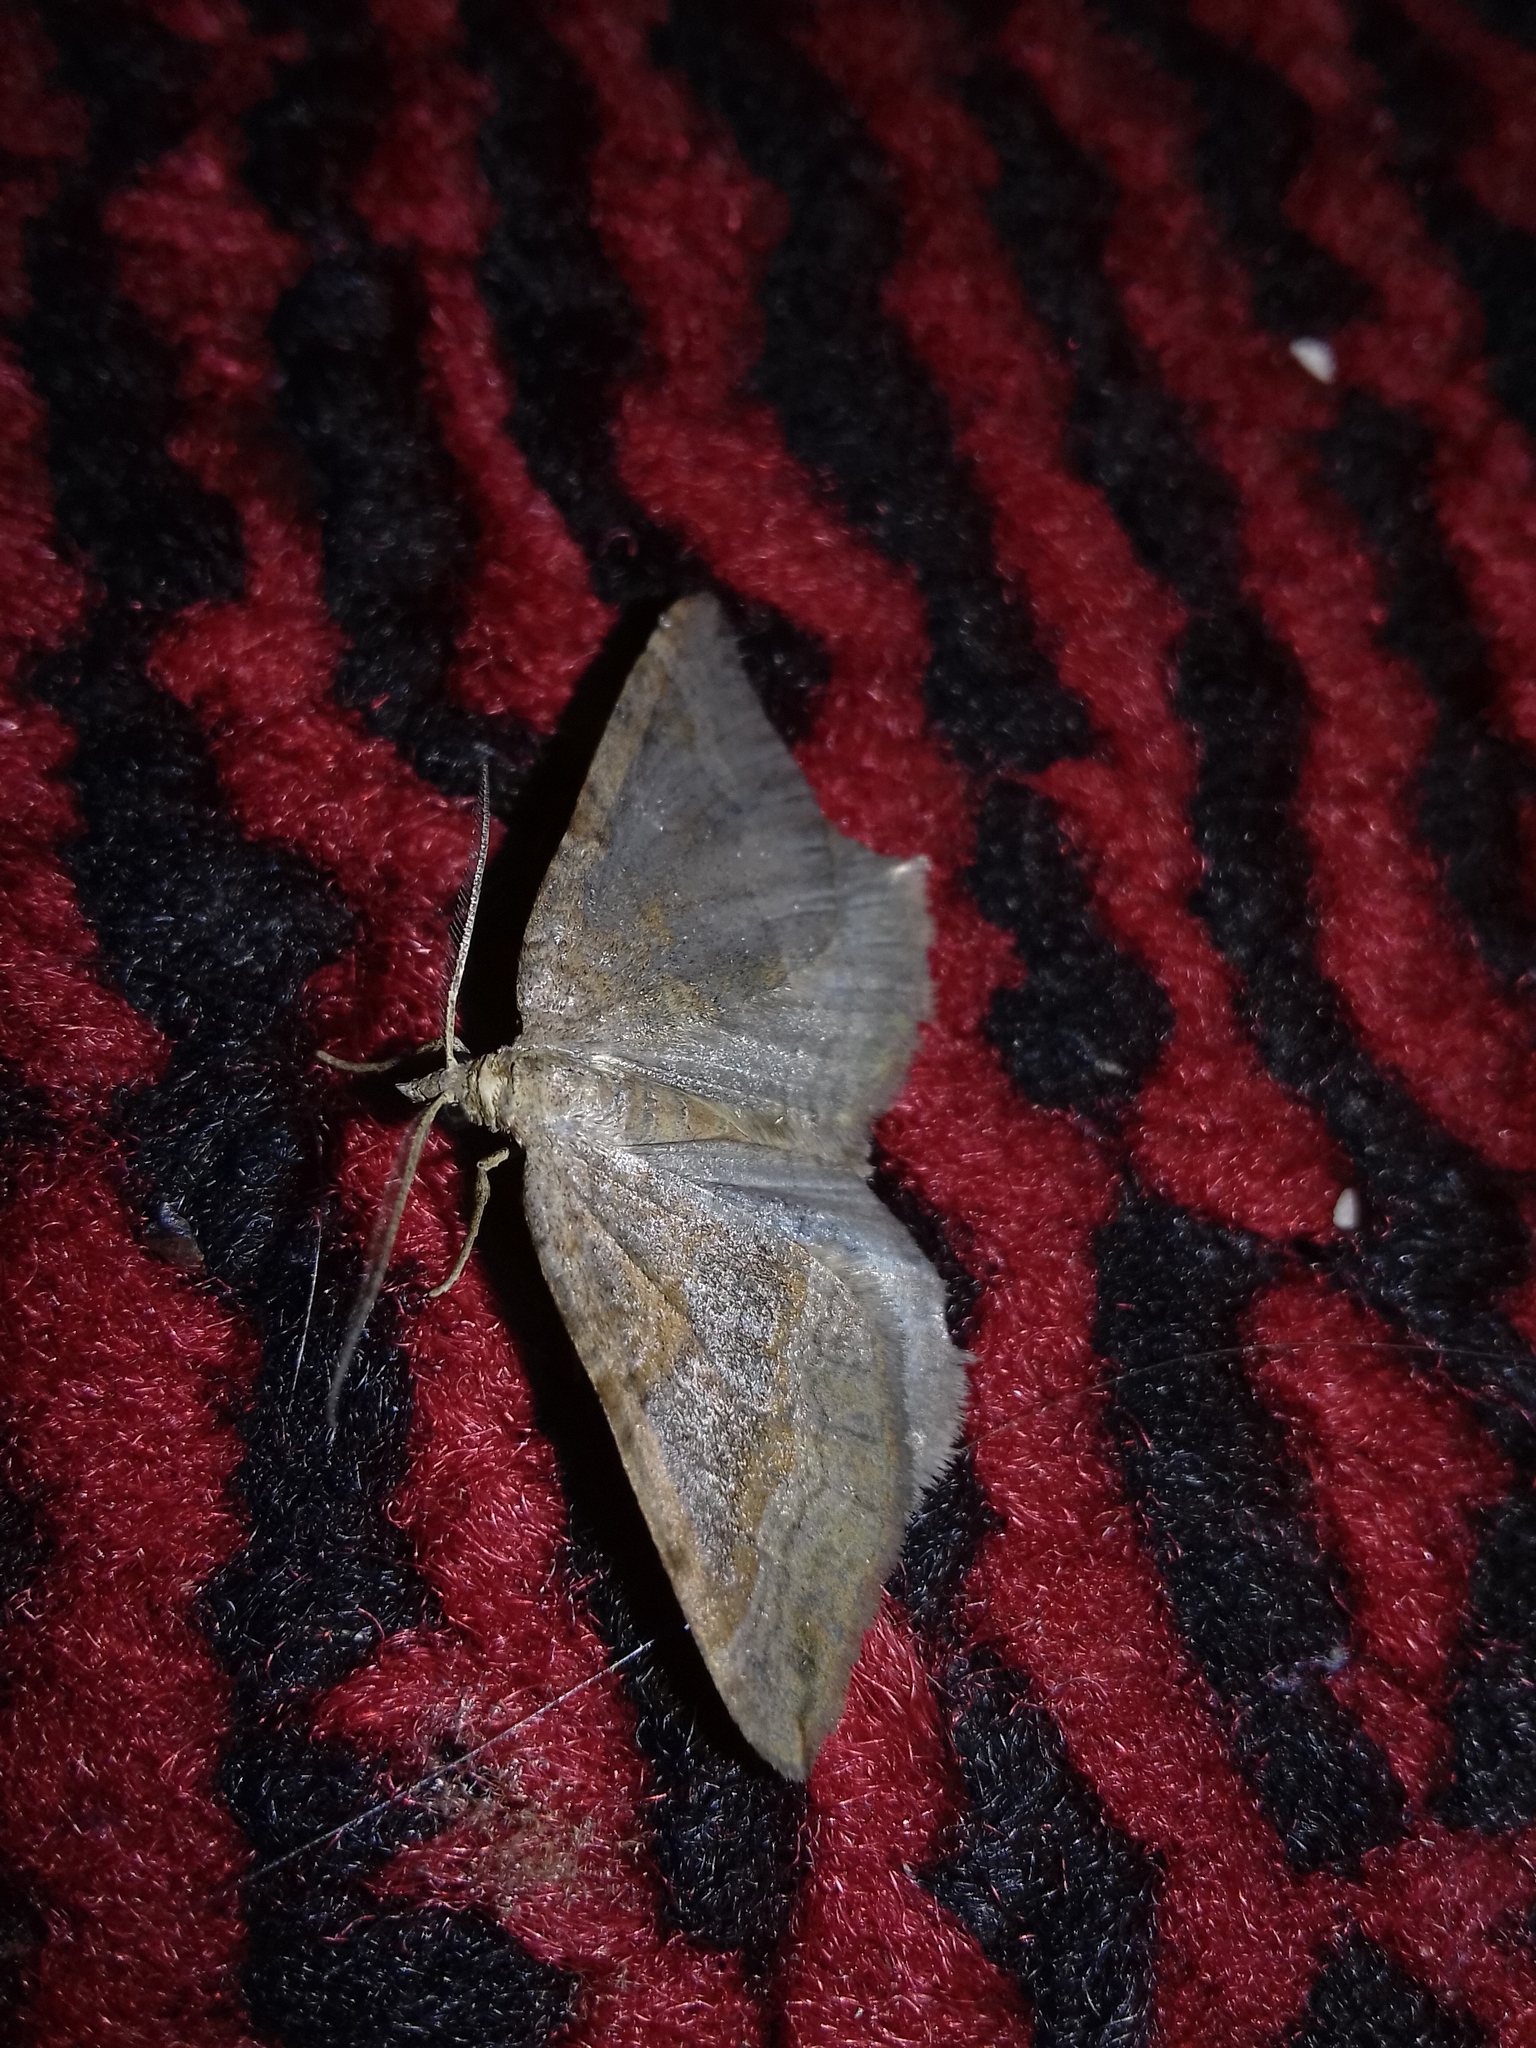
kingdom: Animalia
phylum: Arthropoda
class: Insecta
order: Lepidoptera
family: Geometridae
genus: Scotopteryx
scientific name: Scotopteryx chenopodiata
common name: Shaded broad-bar
